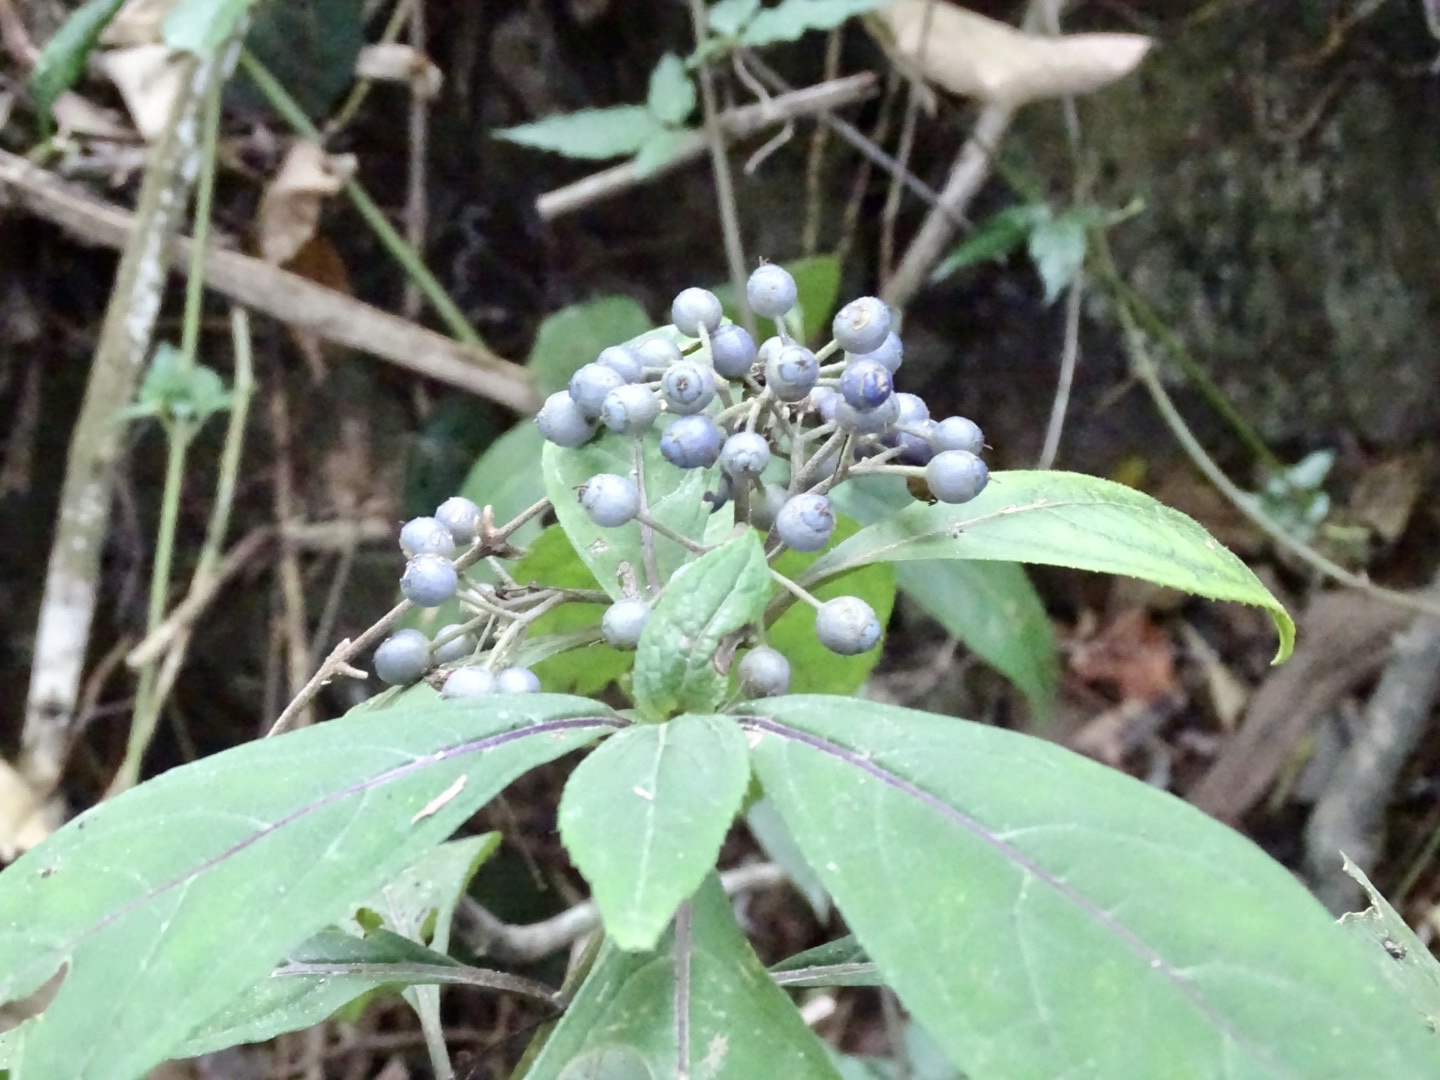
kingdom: Plantae
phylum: Tracheophyta
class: Magnoliopsida
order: Cornales
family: Hydrangeaceae
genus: Hydrangea
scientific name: Hydrangea febrifuga
